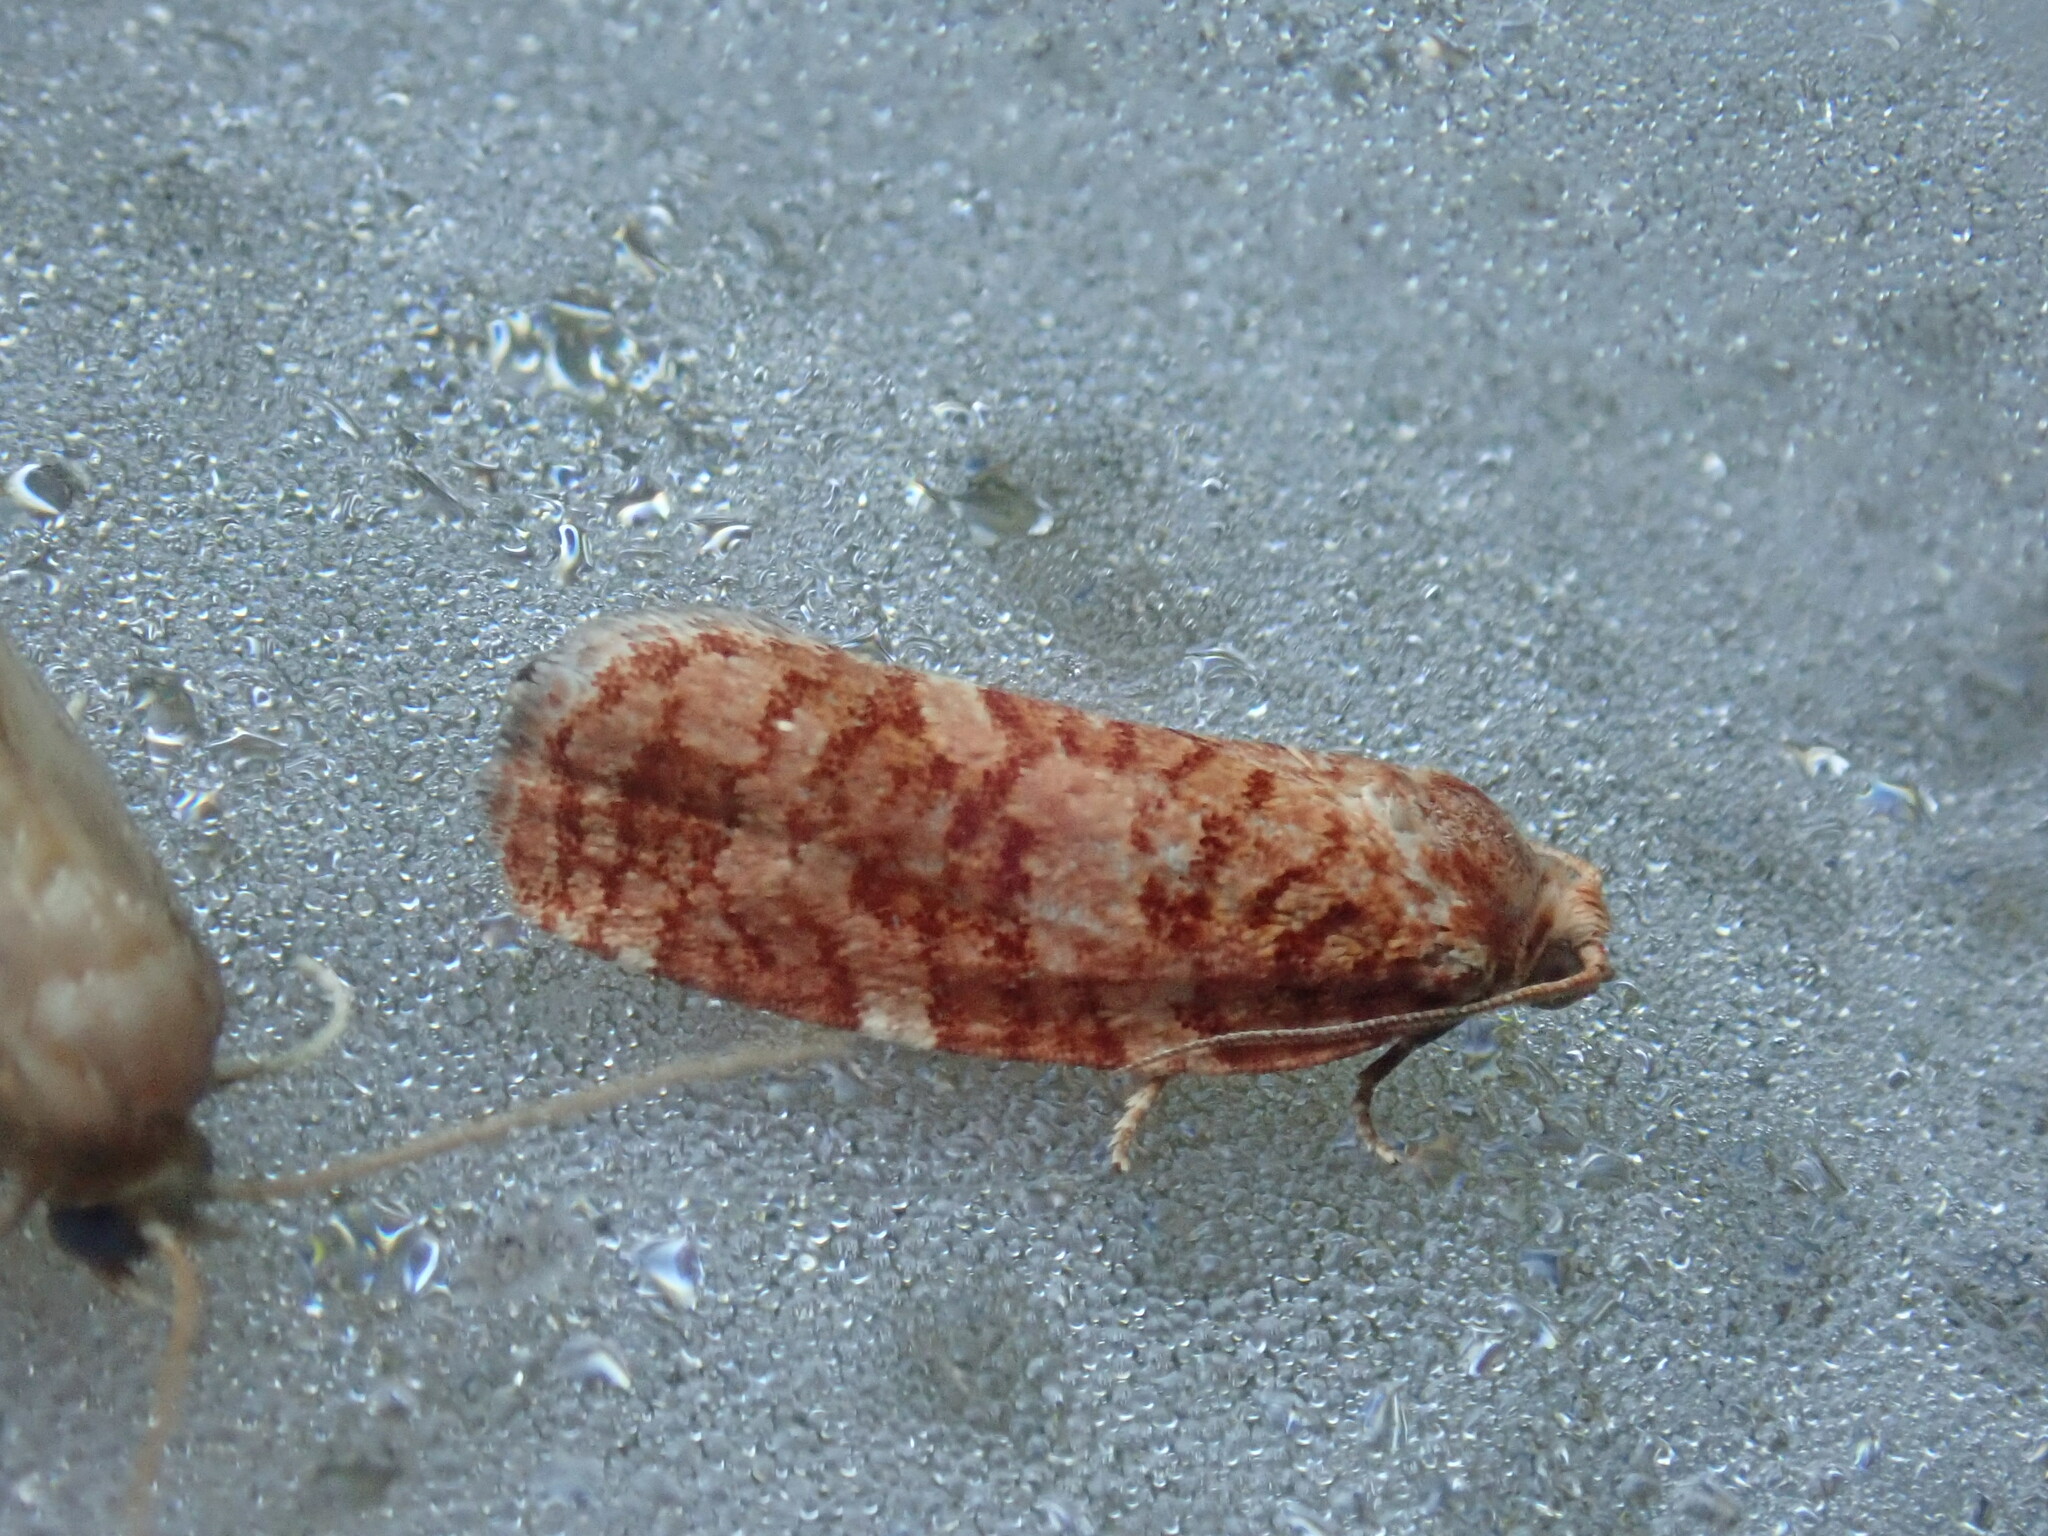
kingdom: Animalia
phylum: Arthropoda
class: Insecta
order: Lepidoptera
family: Tortricidae
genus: Choristoneura
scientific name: Choristoneura pinus
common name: Jack pine budworm
